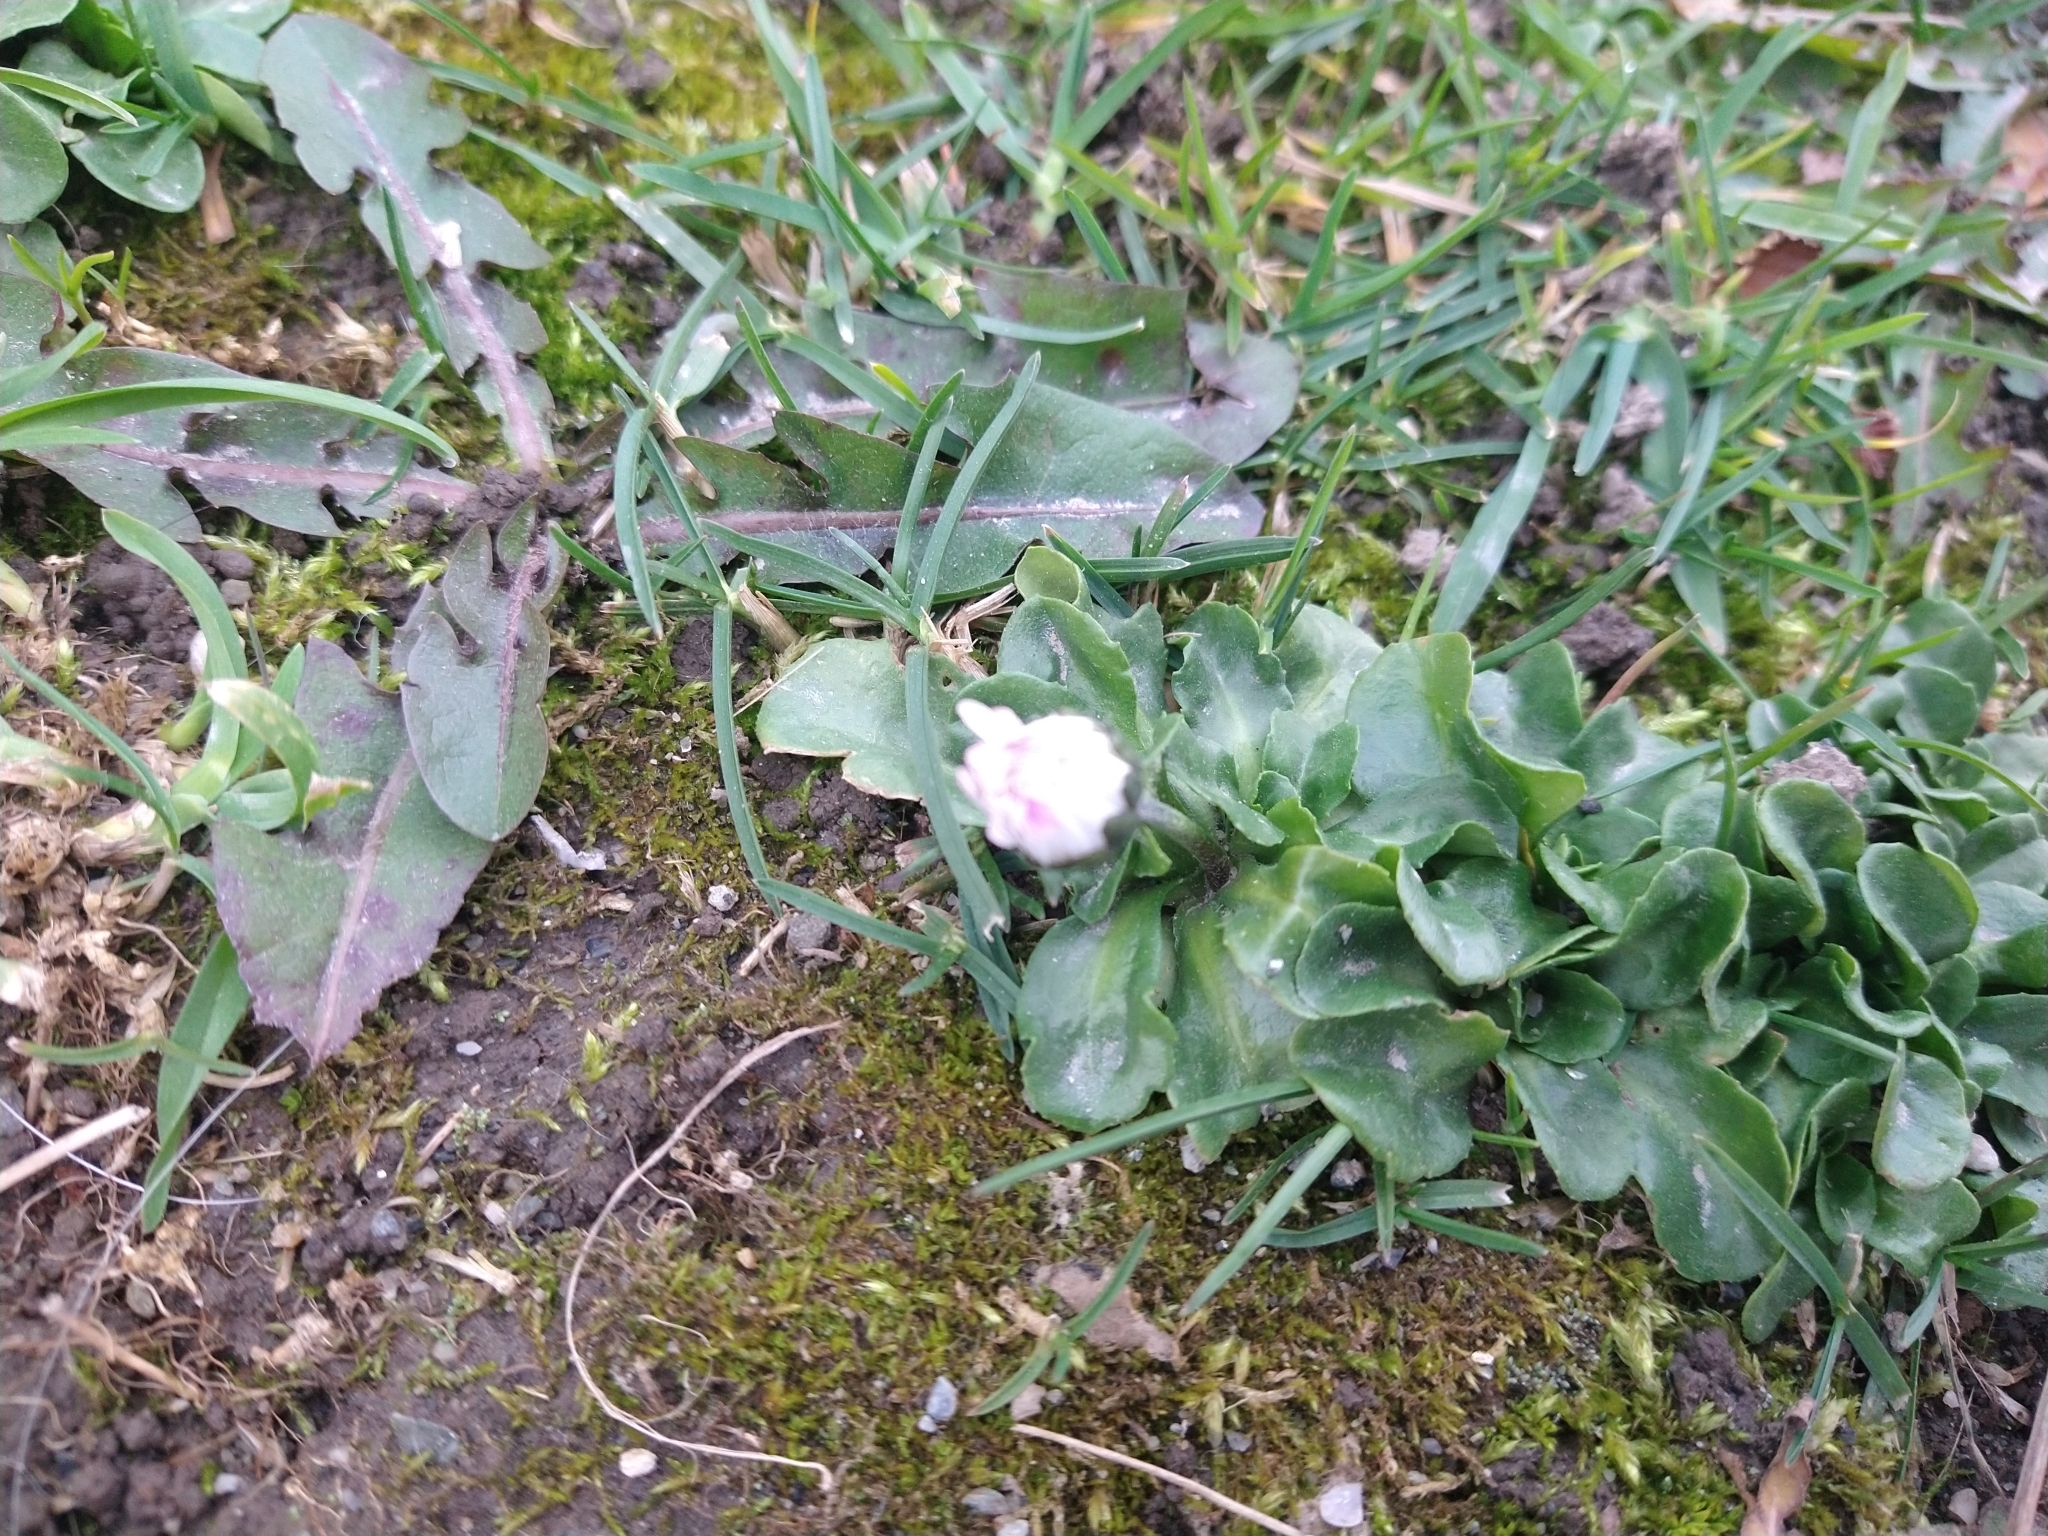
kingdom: Plantae
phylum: Tracheophyta
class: Magnoliopsida
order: Asterales
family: Asteraceae
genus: Bellis
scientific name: Bellis perennis
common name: Lawndaisy
